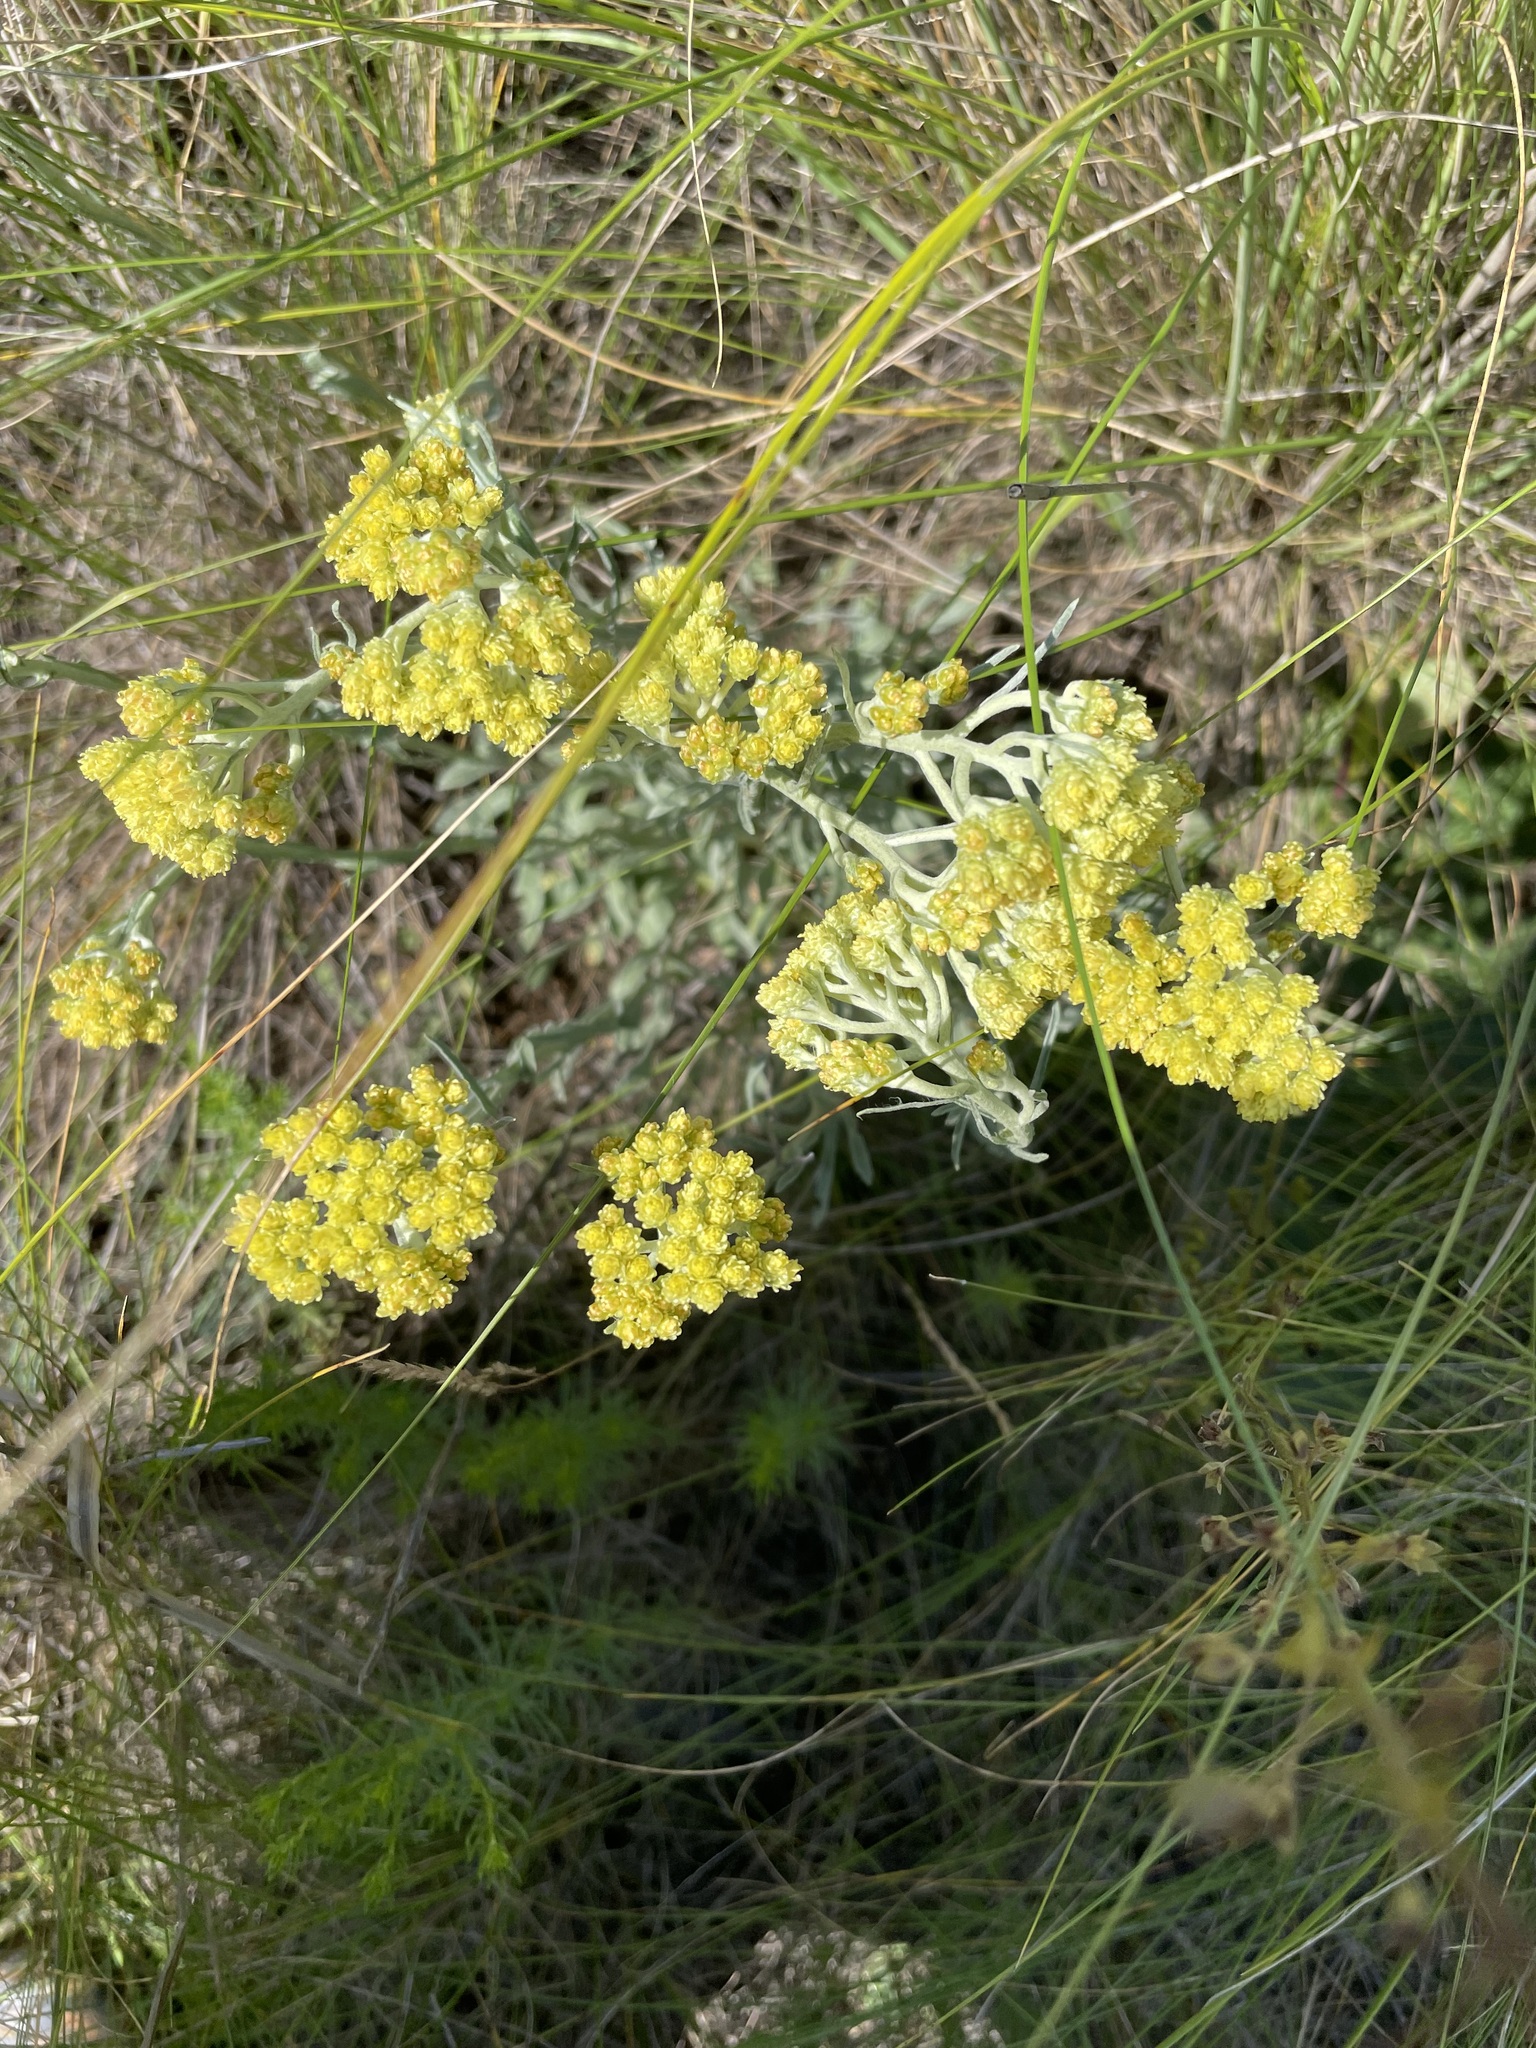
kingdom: Plantae
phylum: Tracheophyta
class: Magnoliopsida
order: Asterales
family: Asteraceae
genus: Helichrysum
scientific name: Helichrysum arenarium
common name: Strawflower
